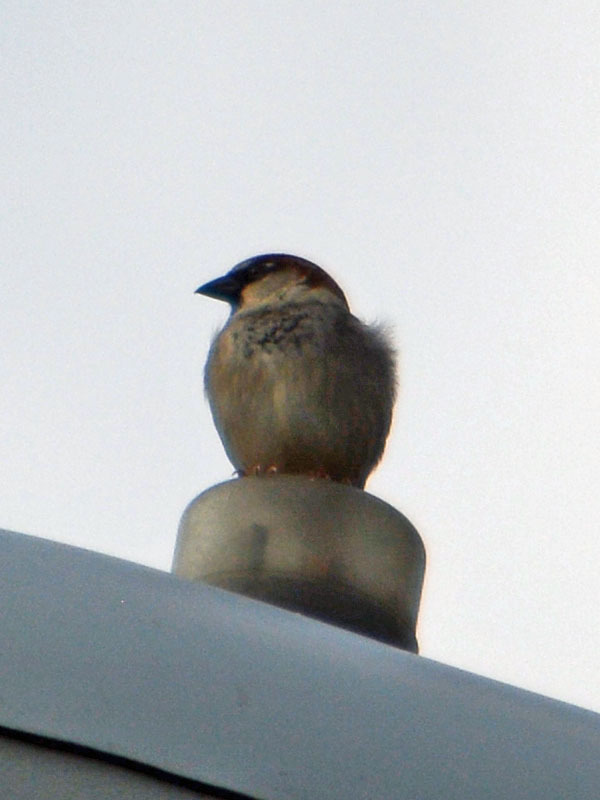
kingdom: Animalia
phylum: Chordata
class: Aves
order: Passeriformes
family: Passeridae
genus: Passer
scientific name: Passer domesticus
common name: House sparrow
